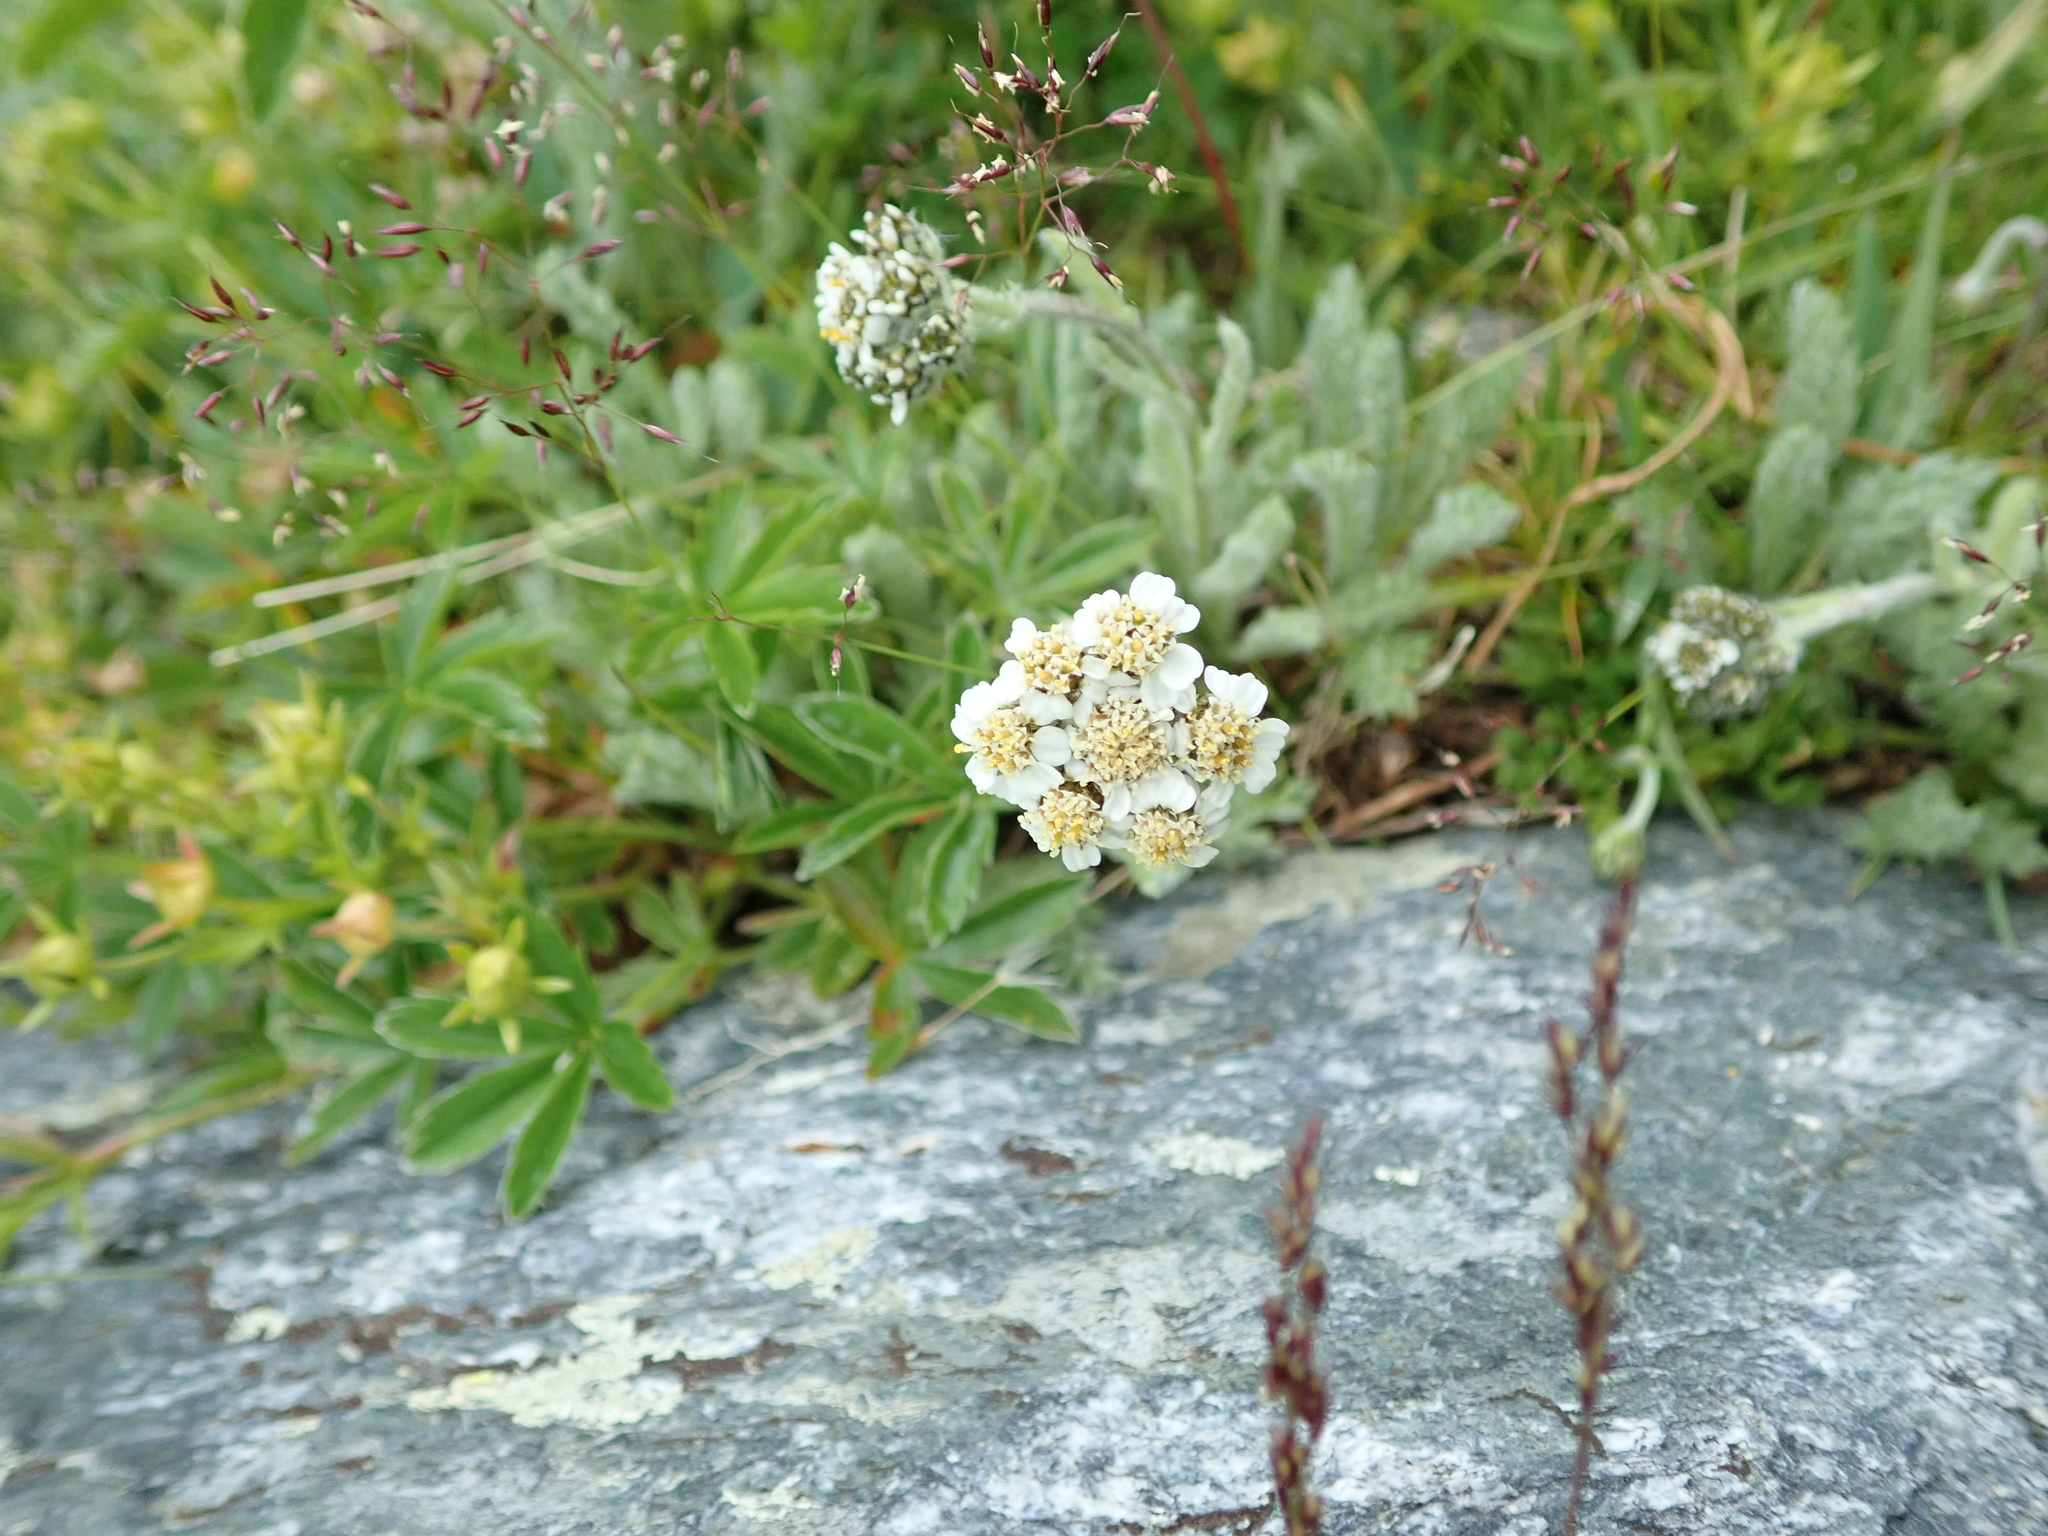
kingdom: Plantae
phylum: Tracheophyta
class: Magnoliopsida
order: Asterales
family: Asteraceae
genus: Achillea
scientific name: Achillea nana
